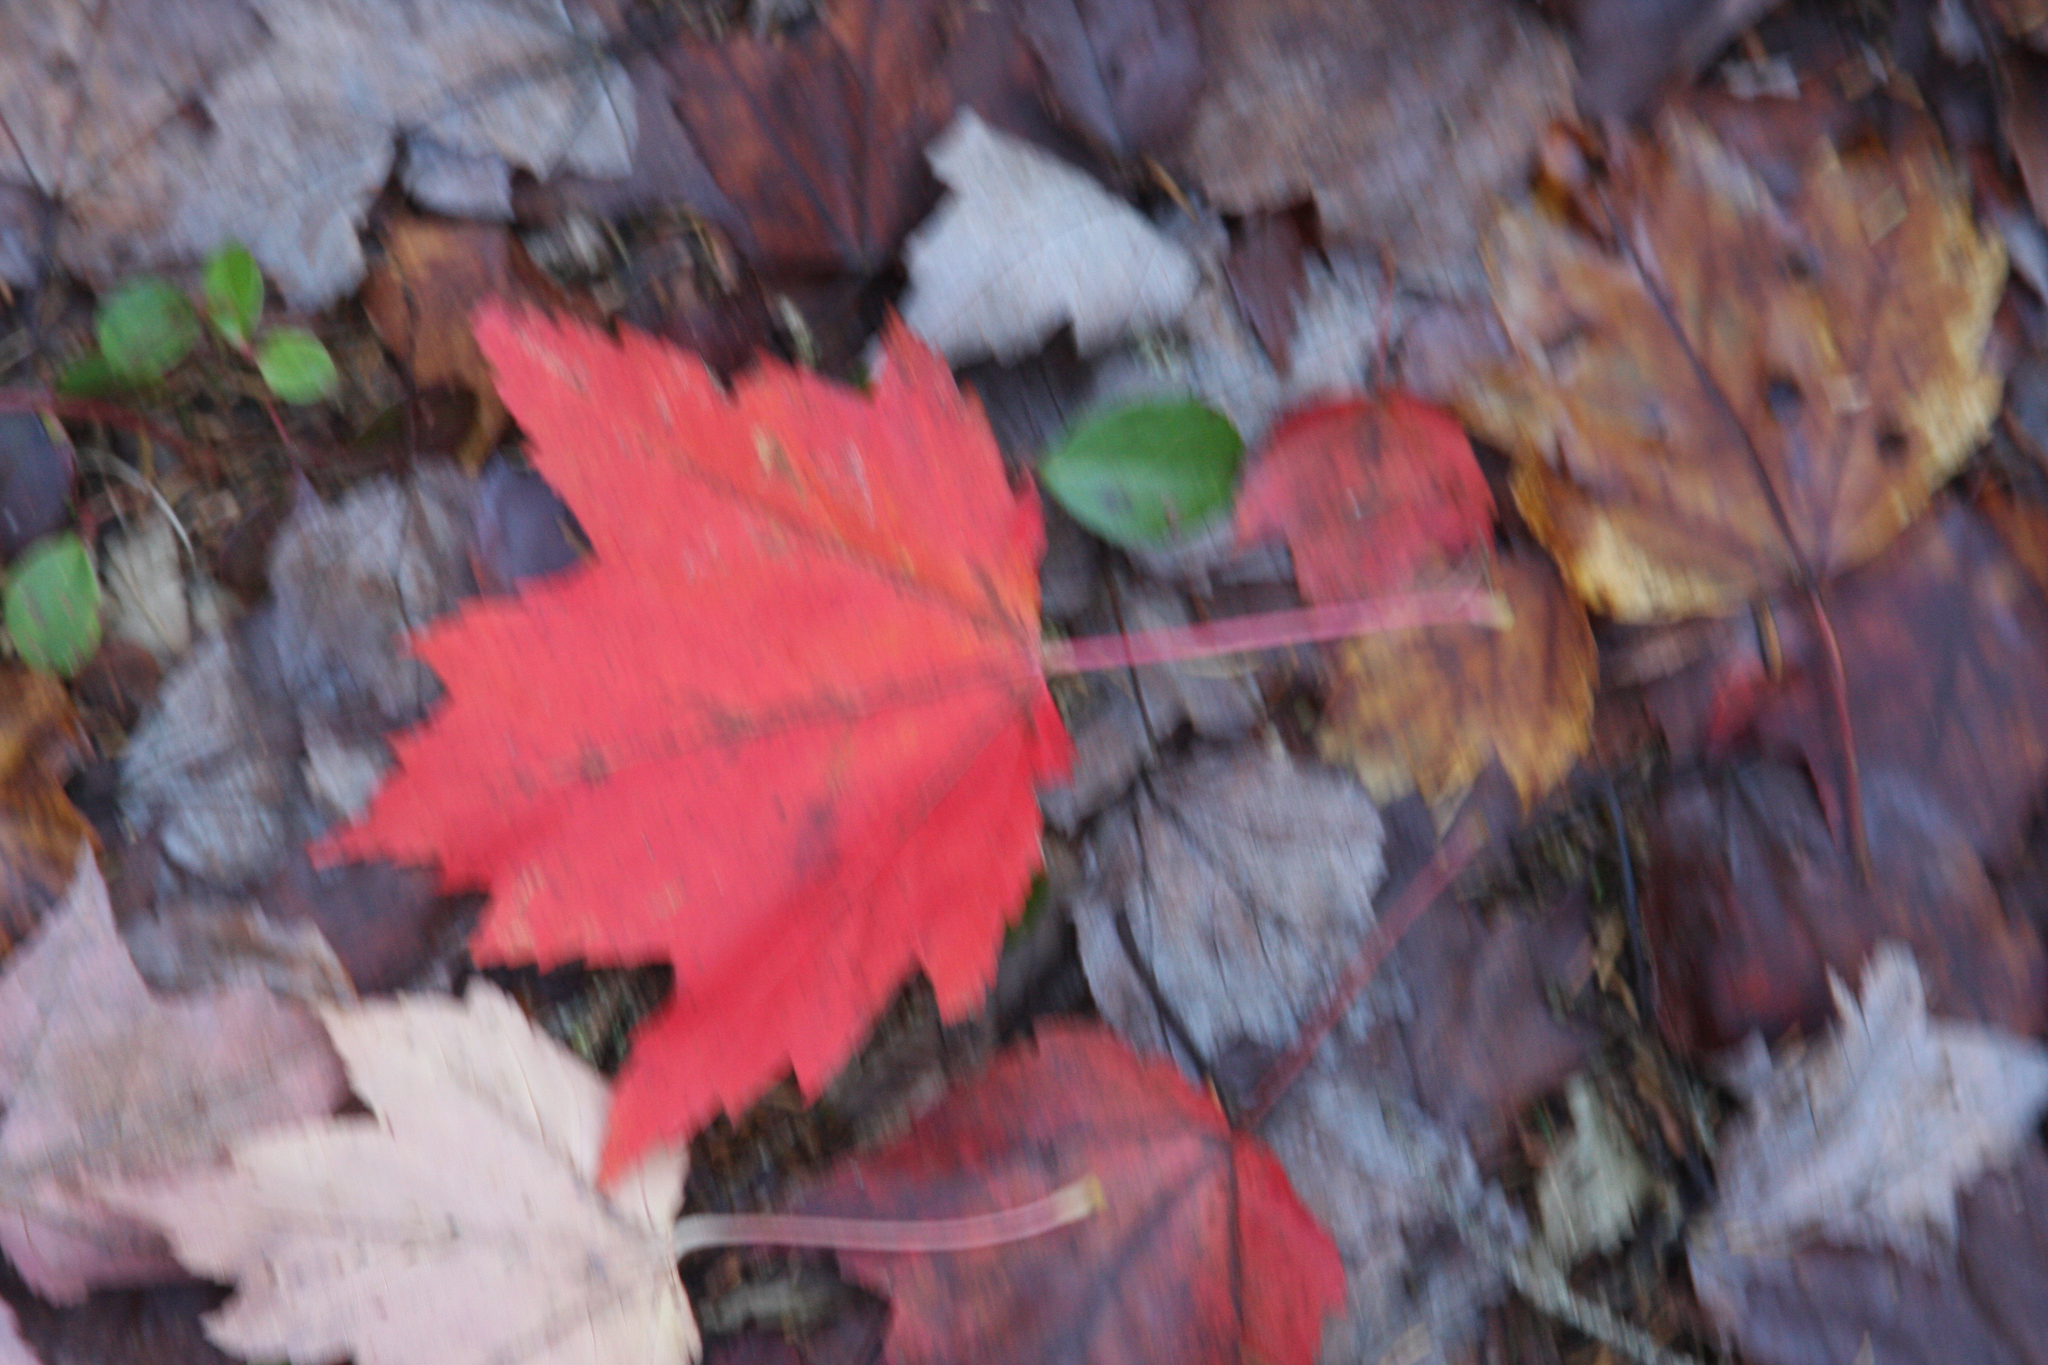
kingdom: Plantae
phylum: Tracheophyta
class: Magnoliopsida
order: Sapindales
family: Sapindaceae
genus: Acer
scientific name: Acer rubrum
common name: Red maple
